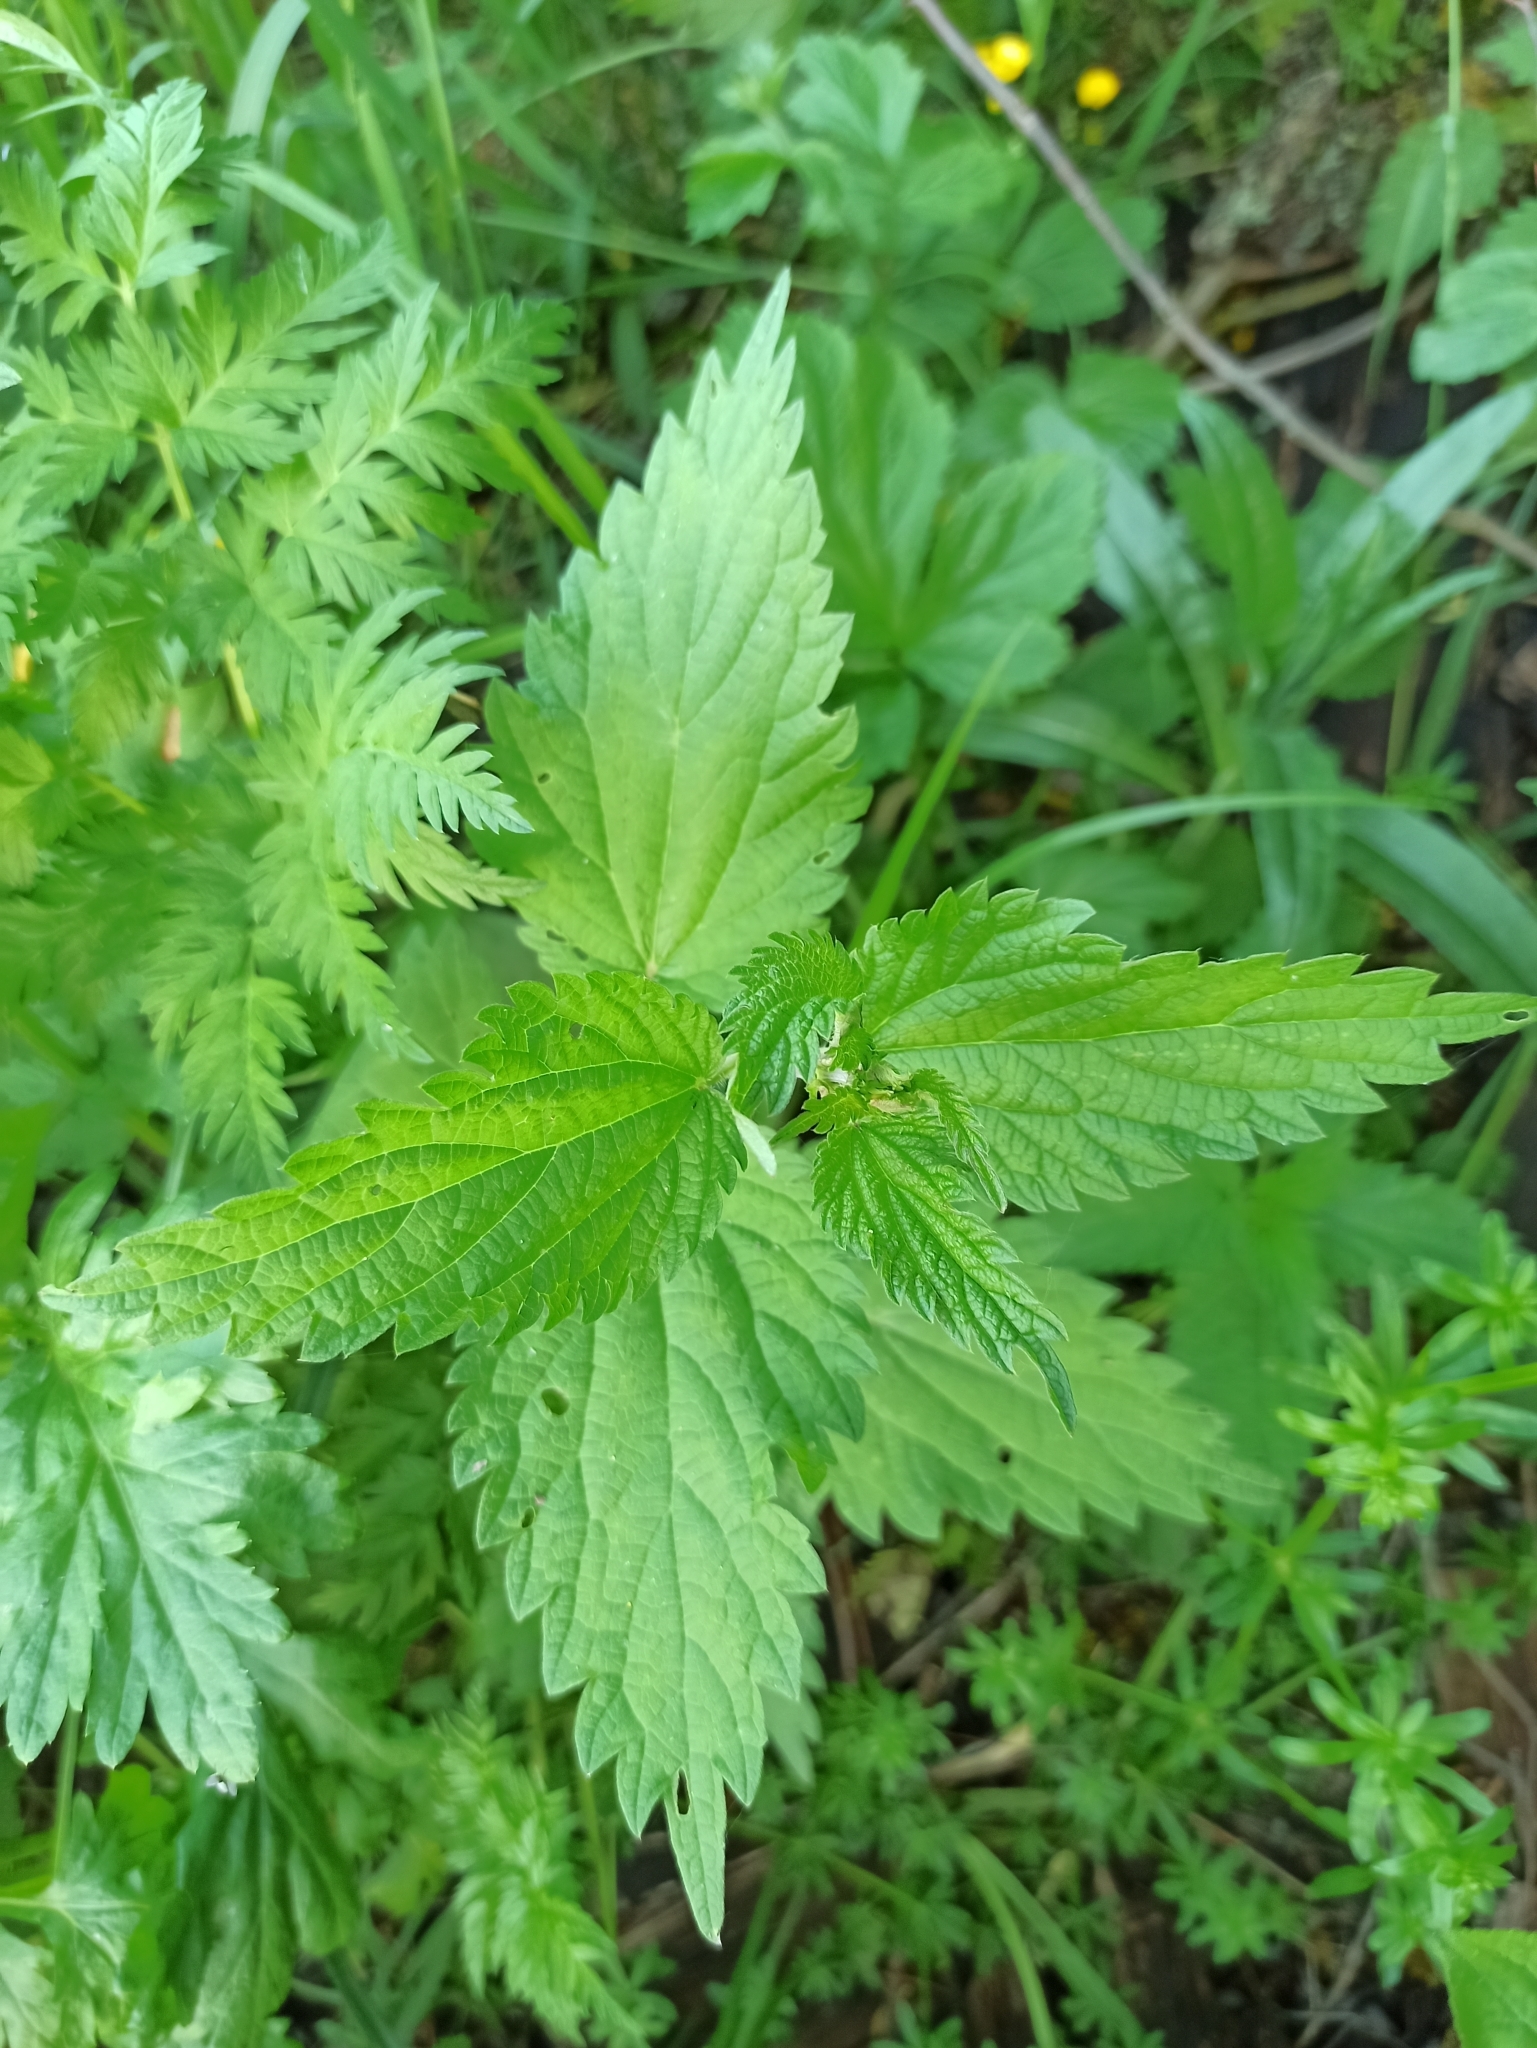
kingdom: Plantae
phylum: Tracheophyta
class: Magnoliopsida
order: Rosales
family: Urticaceae
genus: Urtica
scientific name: Urtica dioica
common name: Common nettle
